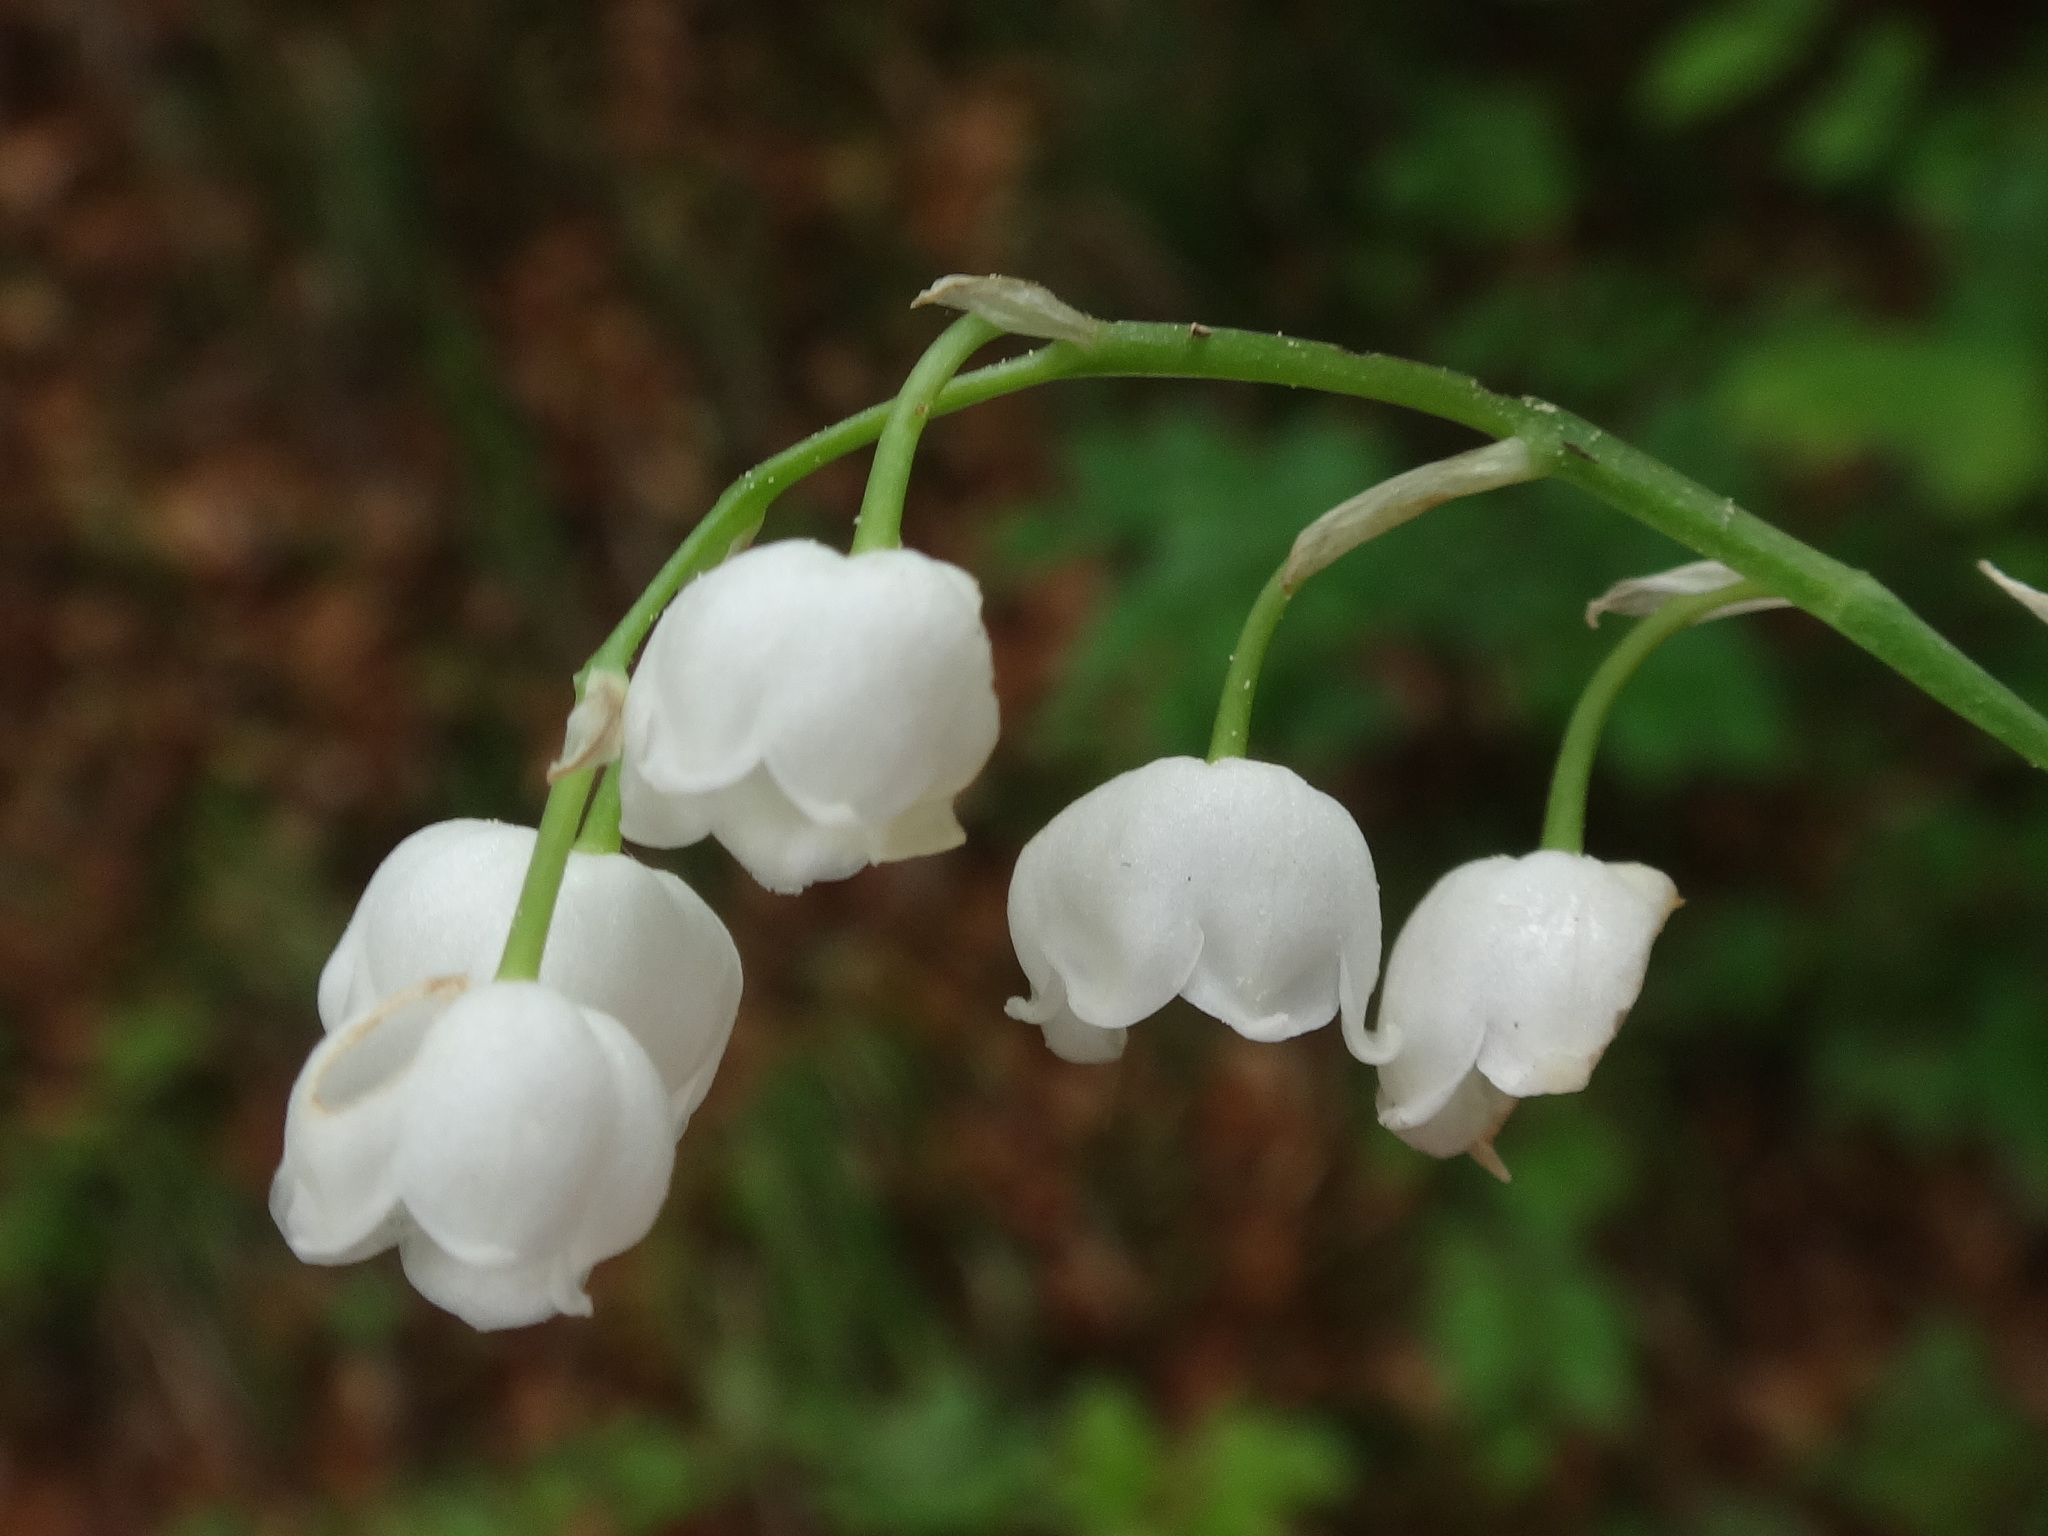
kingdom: Plantae
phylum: Tracheophyta
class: Liliopsida
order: Asparagales
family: Asparagaceae
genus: Convallaria
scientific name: Convallaria majalis
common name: Lily-of-the-valley
